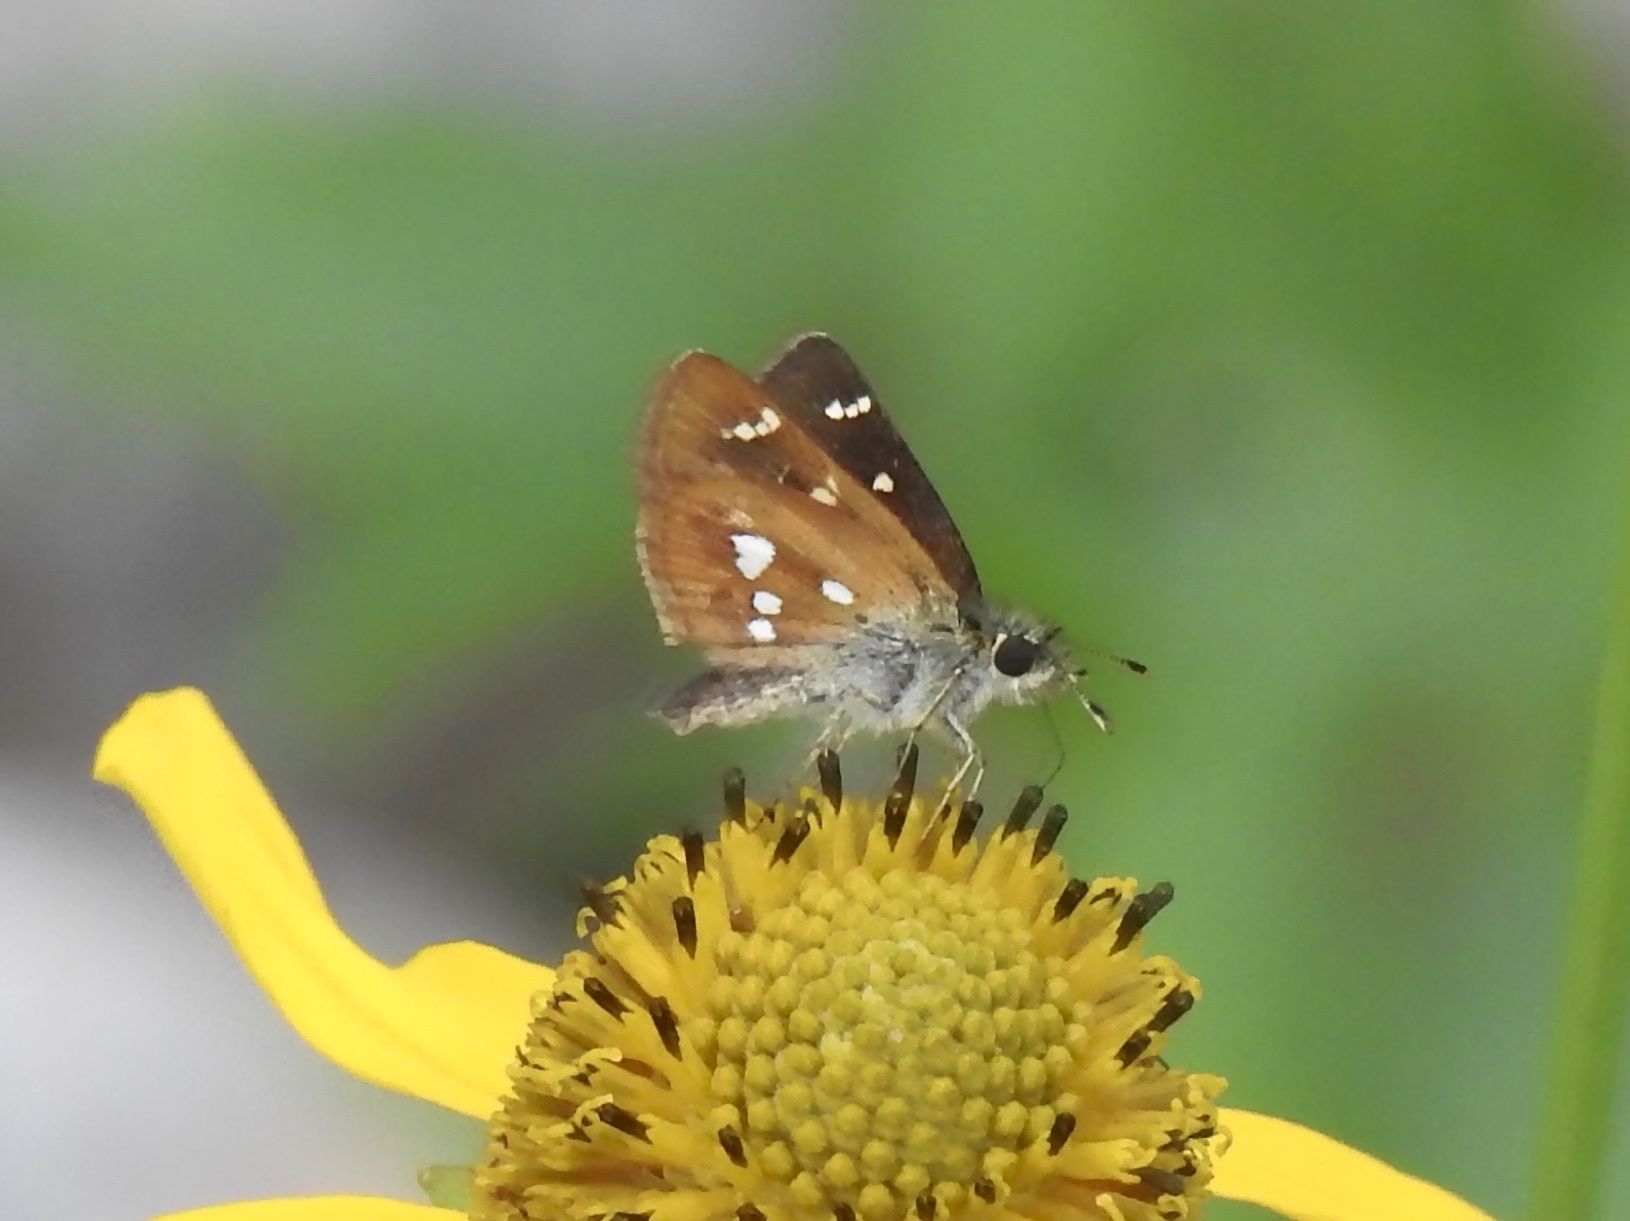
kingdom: Animalia
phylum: Arthropoda
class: Insecta
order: Lepidoptera
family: Hesperiidae
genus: Piruna
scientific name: Piruna polingii
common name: Four-spotted skipperling
